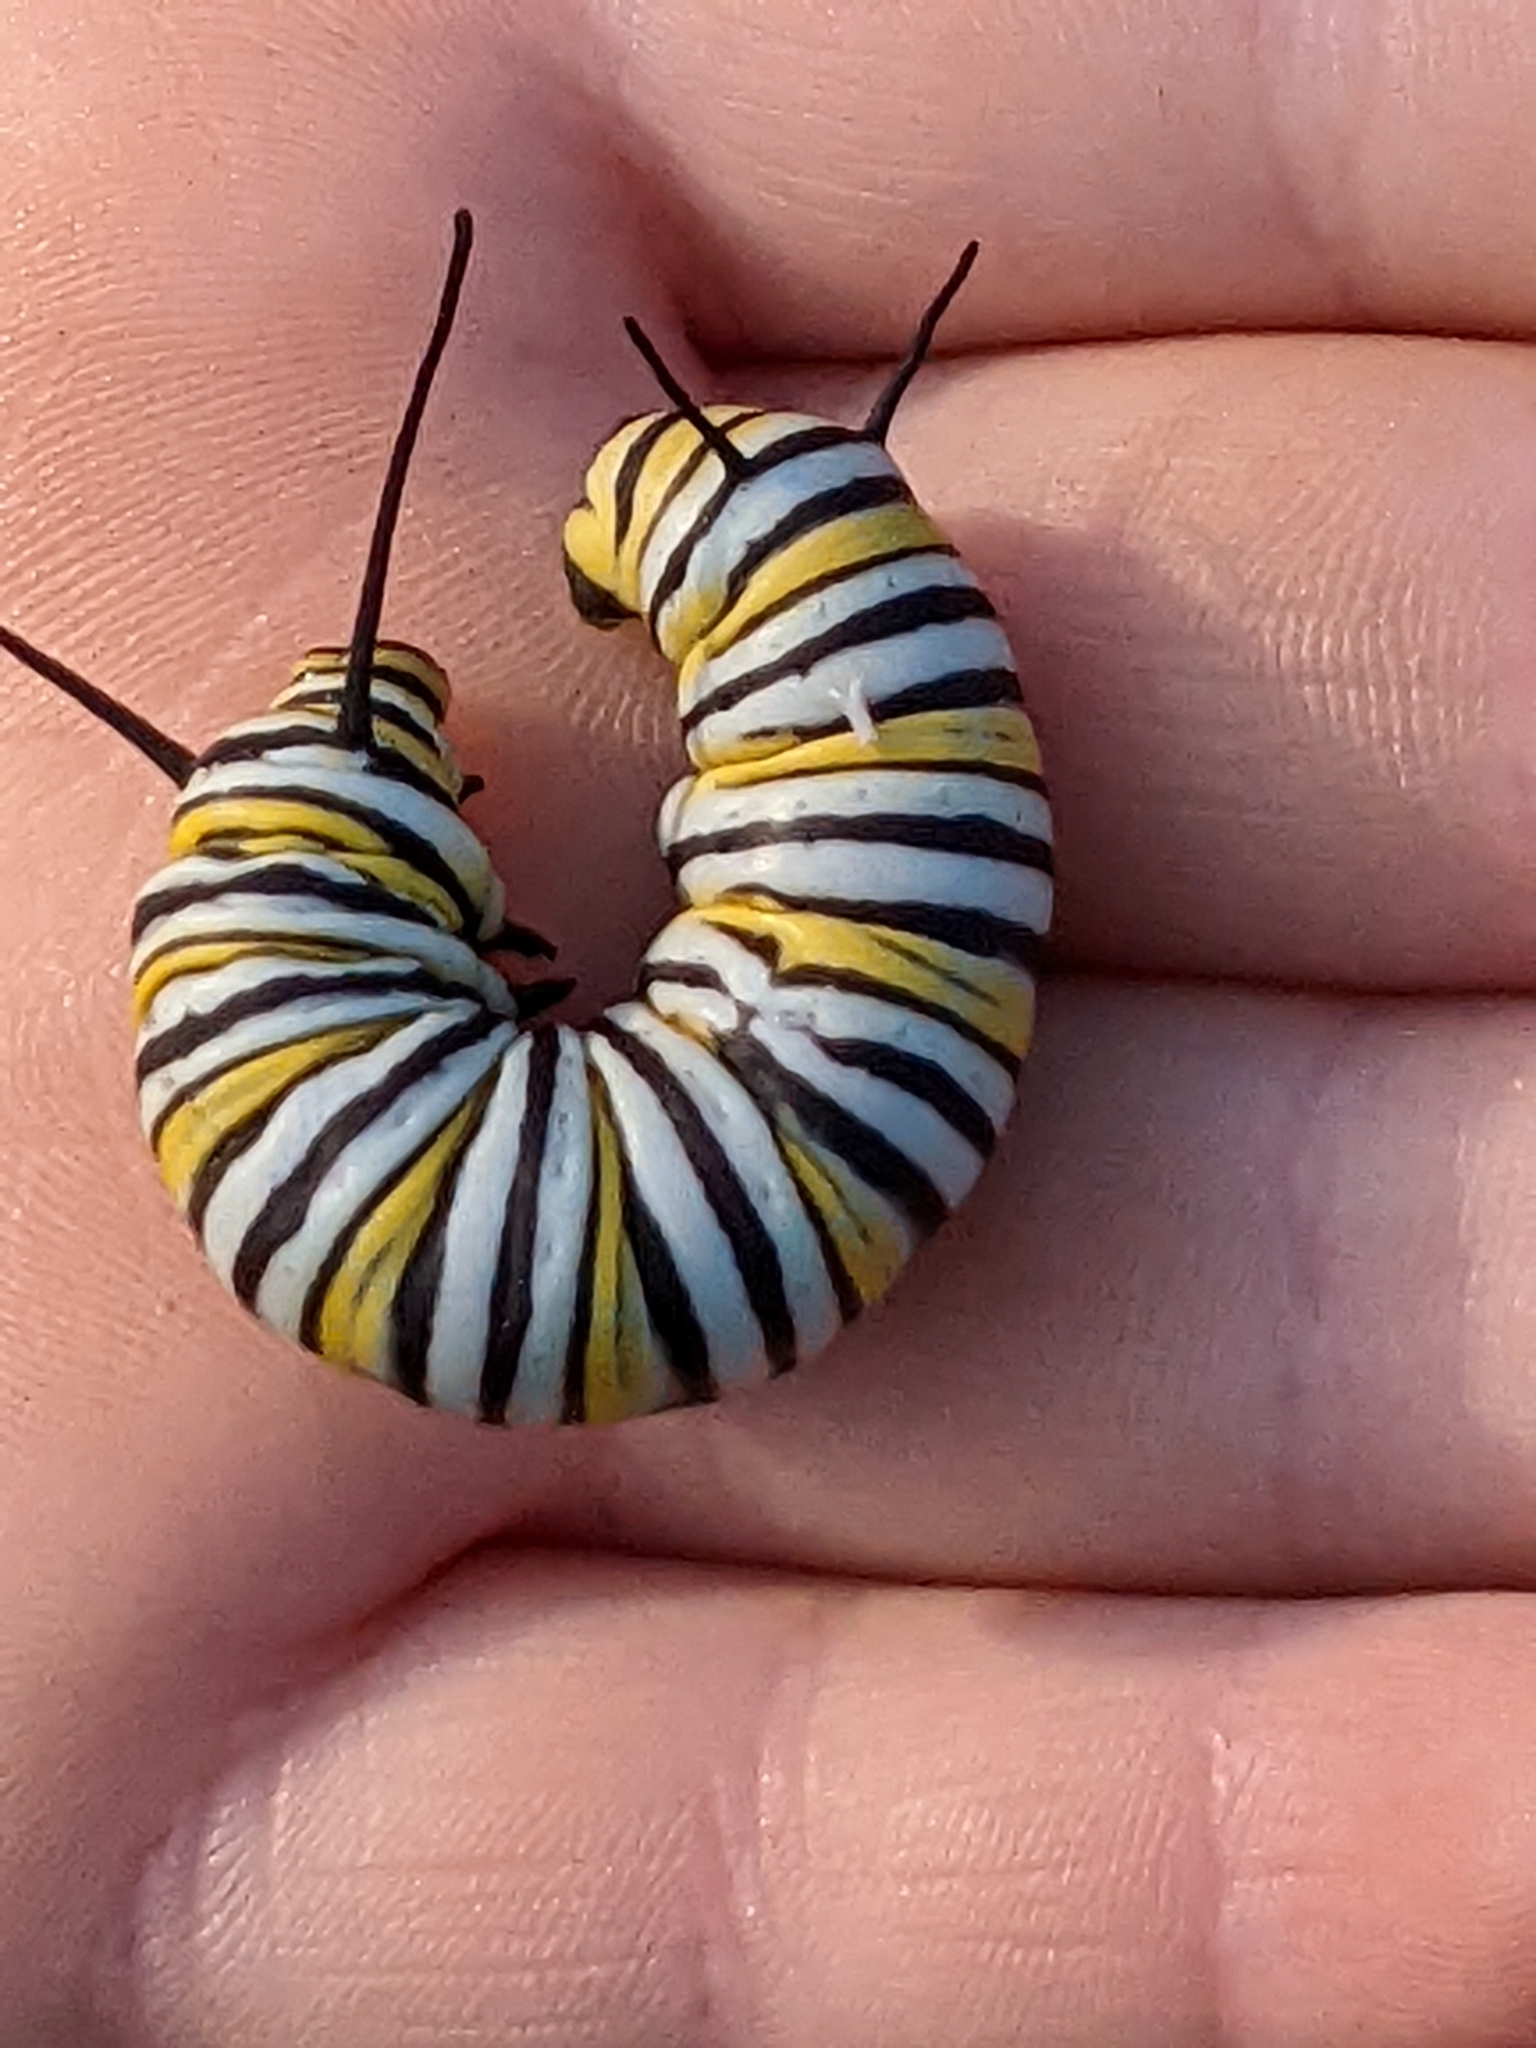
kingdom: Animalia
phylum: Arthropoda
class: Insecta
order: Lepidoptera
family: Nymphalidae
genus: Danaus
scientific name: Danaus plexippus
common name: Monarch
